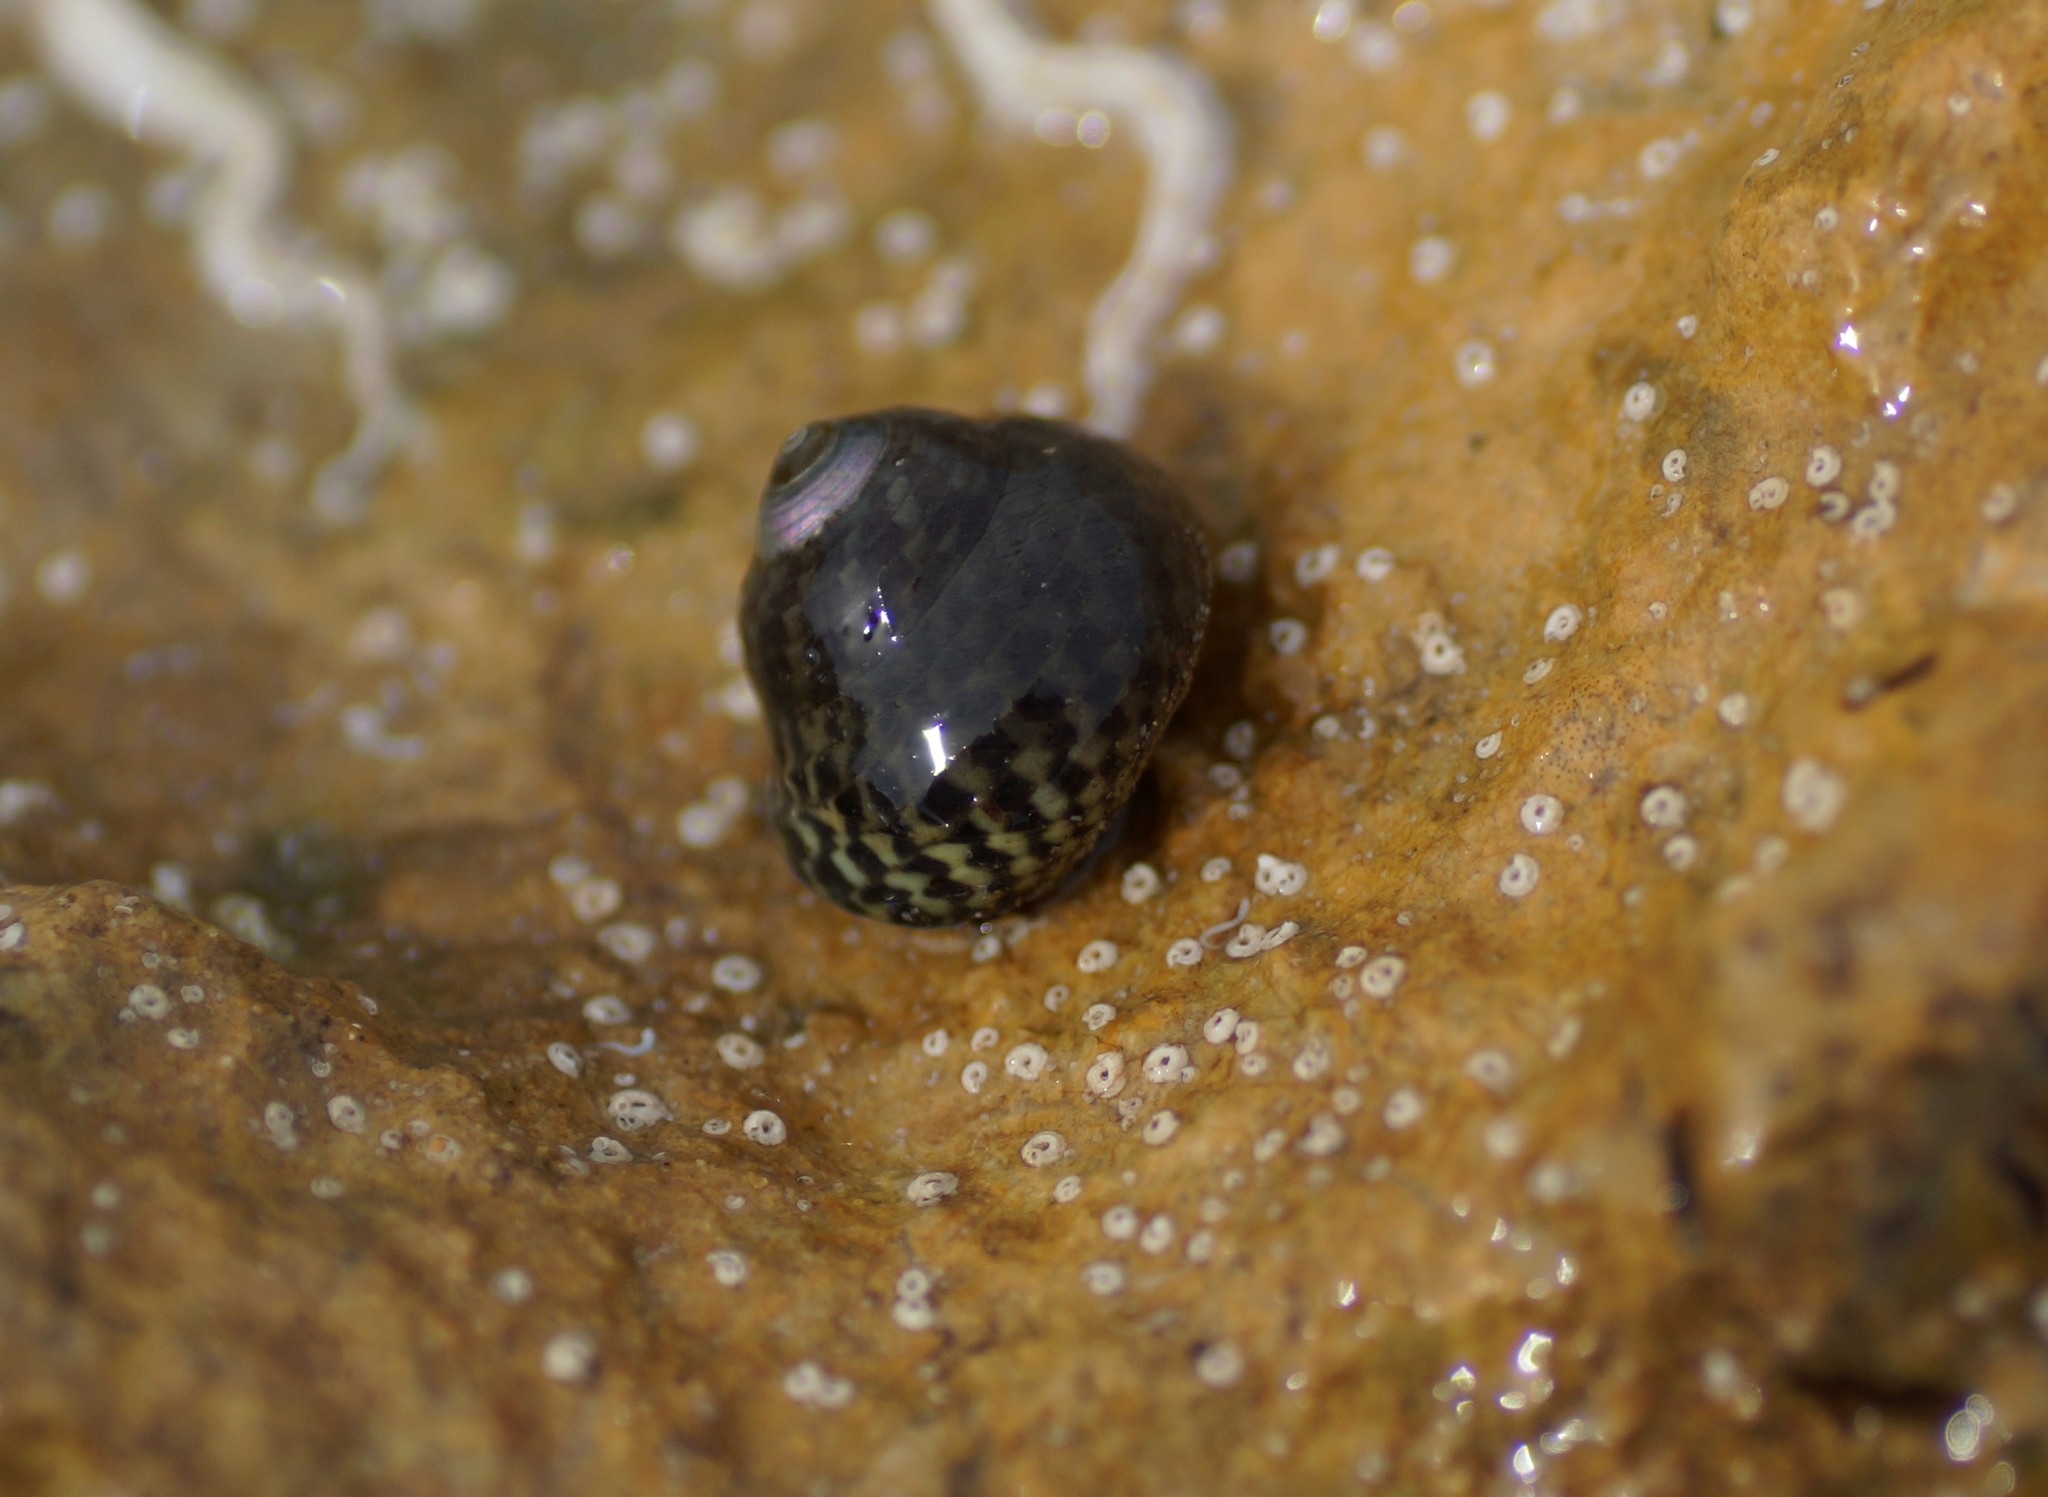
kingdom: Animalia
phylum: Mollusca
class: Gastropoda
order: Trochida
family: Trochidae
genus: Diloma
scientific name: Diloma concameratum
